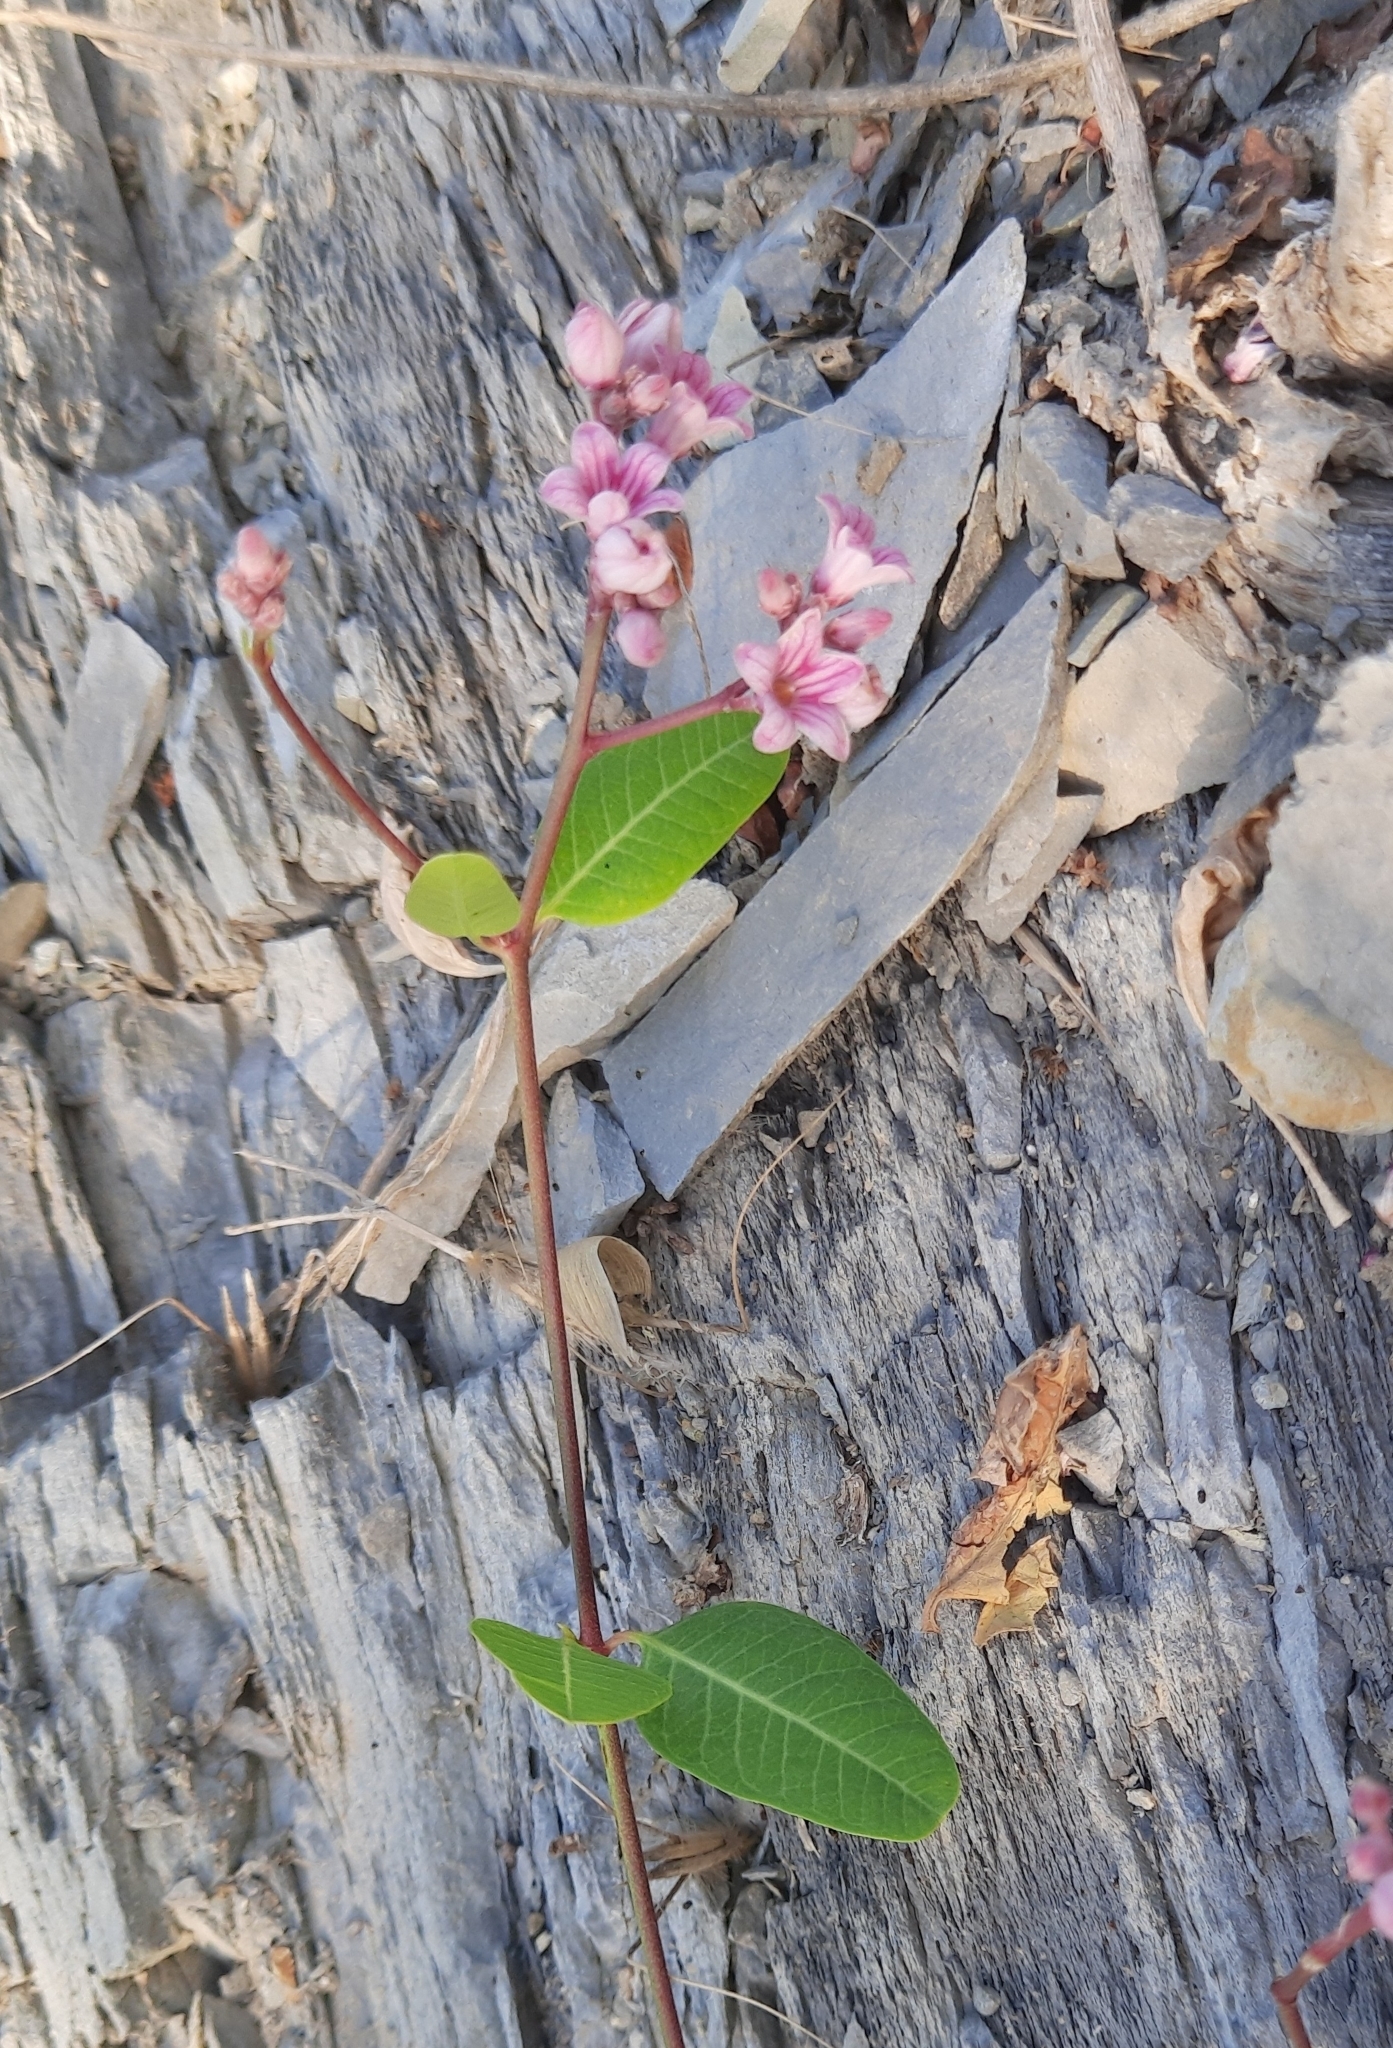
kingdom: Plantae
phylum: Tracheophyta
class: Magnoliopsida
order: Gentianales
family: Apocynaceae
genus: Poacynum
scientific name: Poacynum venetum
